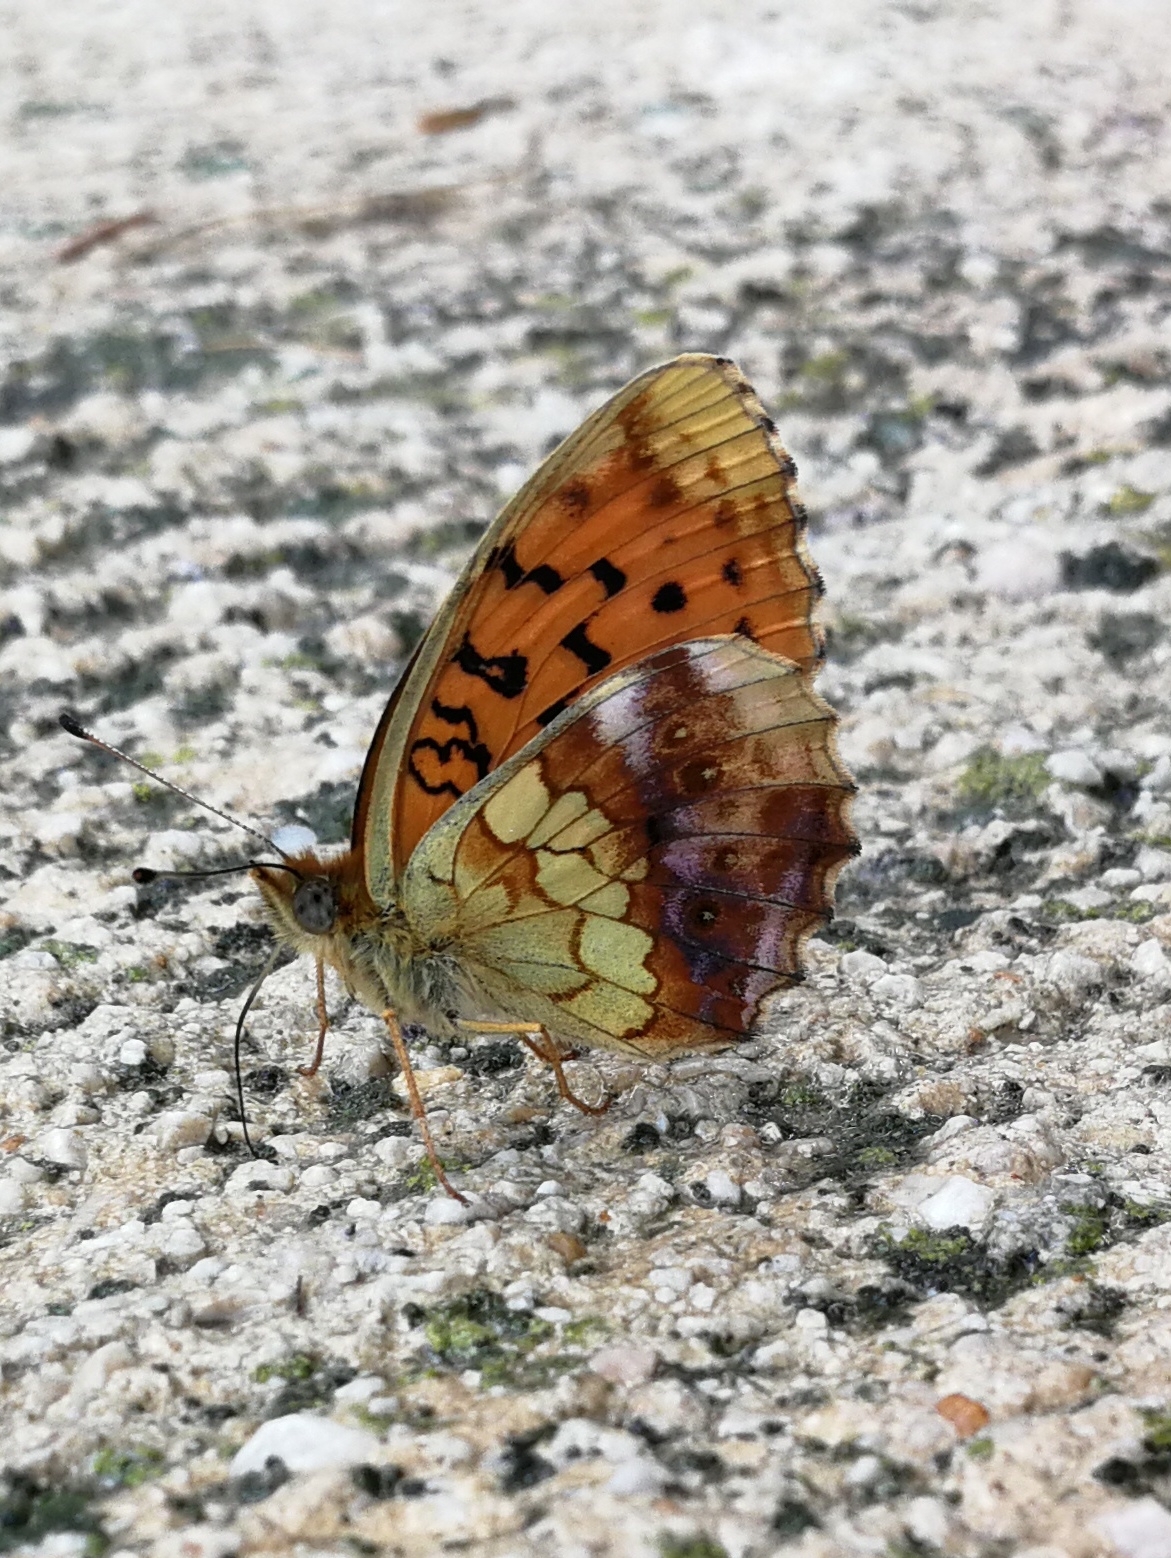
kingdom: Animalia
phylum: Arthropoda
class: Insecta
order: Lepidoptera
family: Nymphalidae
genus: Brenthis
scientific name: Brenthis daphne
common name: Marbled fritillary
